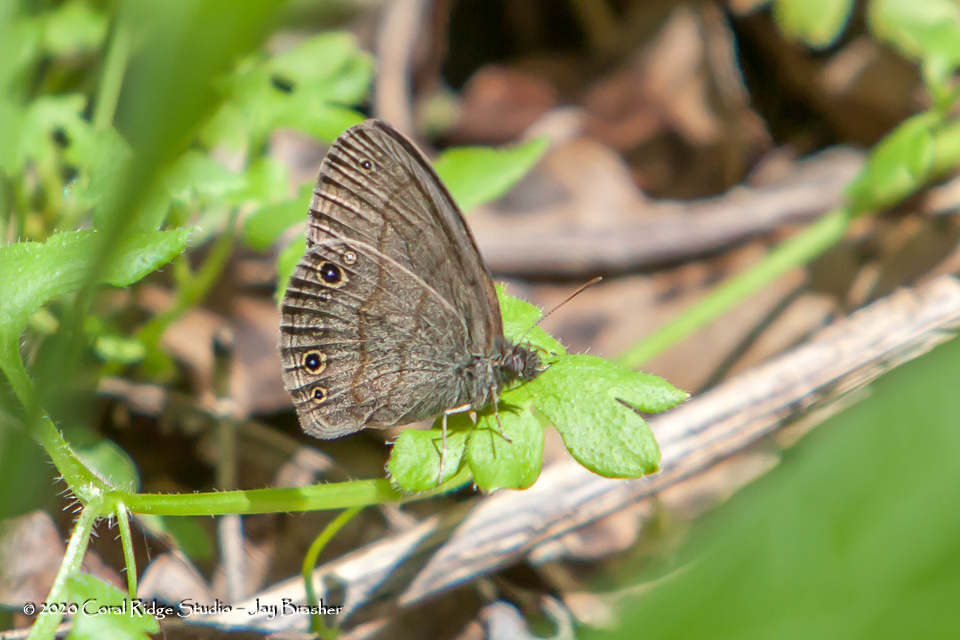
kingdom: Animalia
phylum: Arthropoda
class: Insecta
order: Lepidoptera
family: Nymphalidae
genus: Hermeuptychia
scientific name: Hermeuptychia hermes
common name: Hermes satyr
